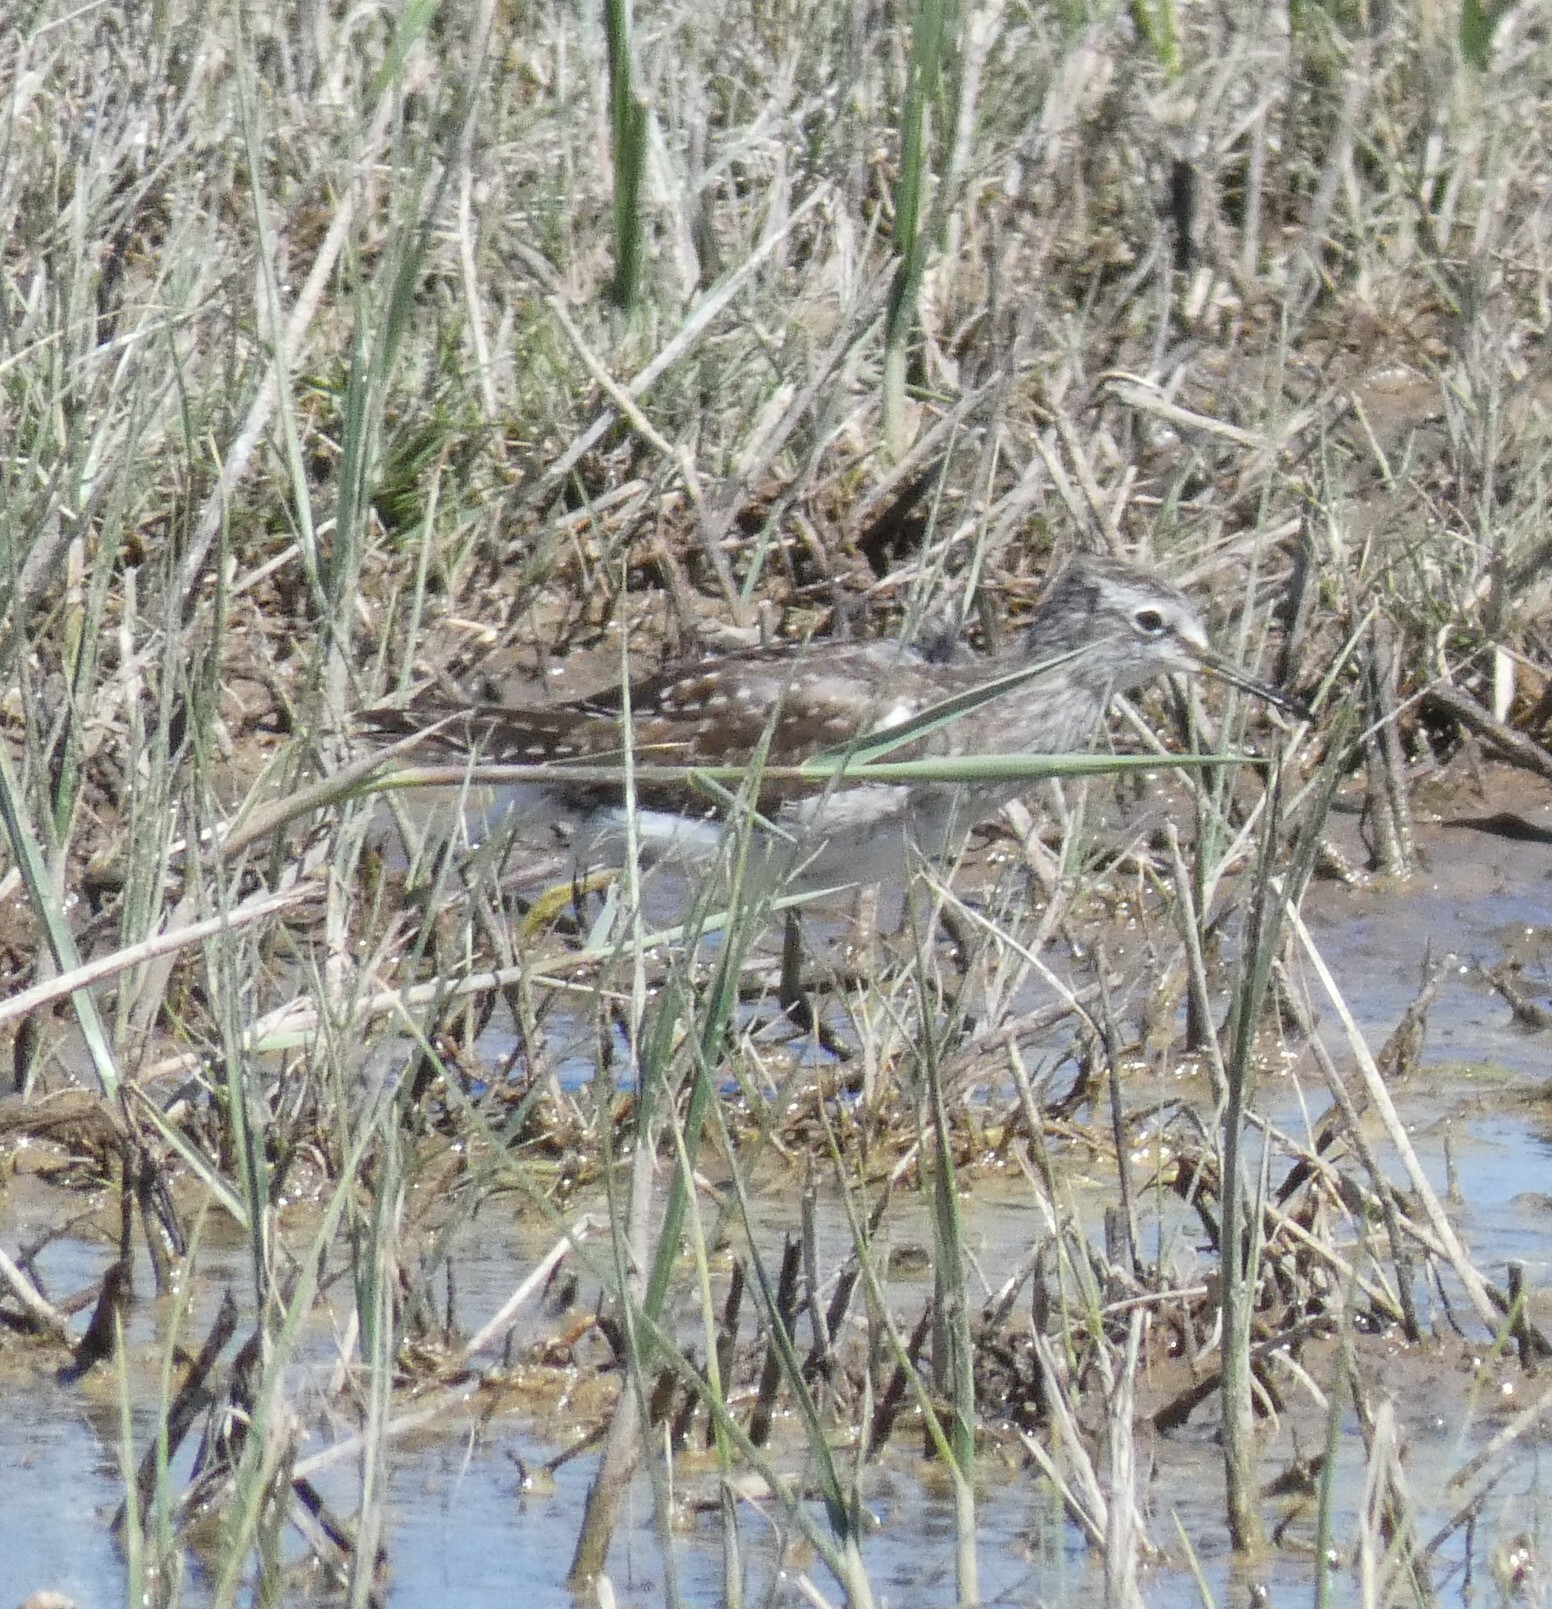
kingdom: Animalia
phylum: Chordata
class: Aves
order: Charadriiformes
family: Scolopacidae
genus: Tringa
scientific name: Tringa glareola
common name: Wood sandpiper
